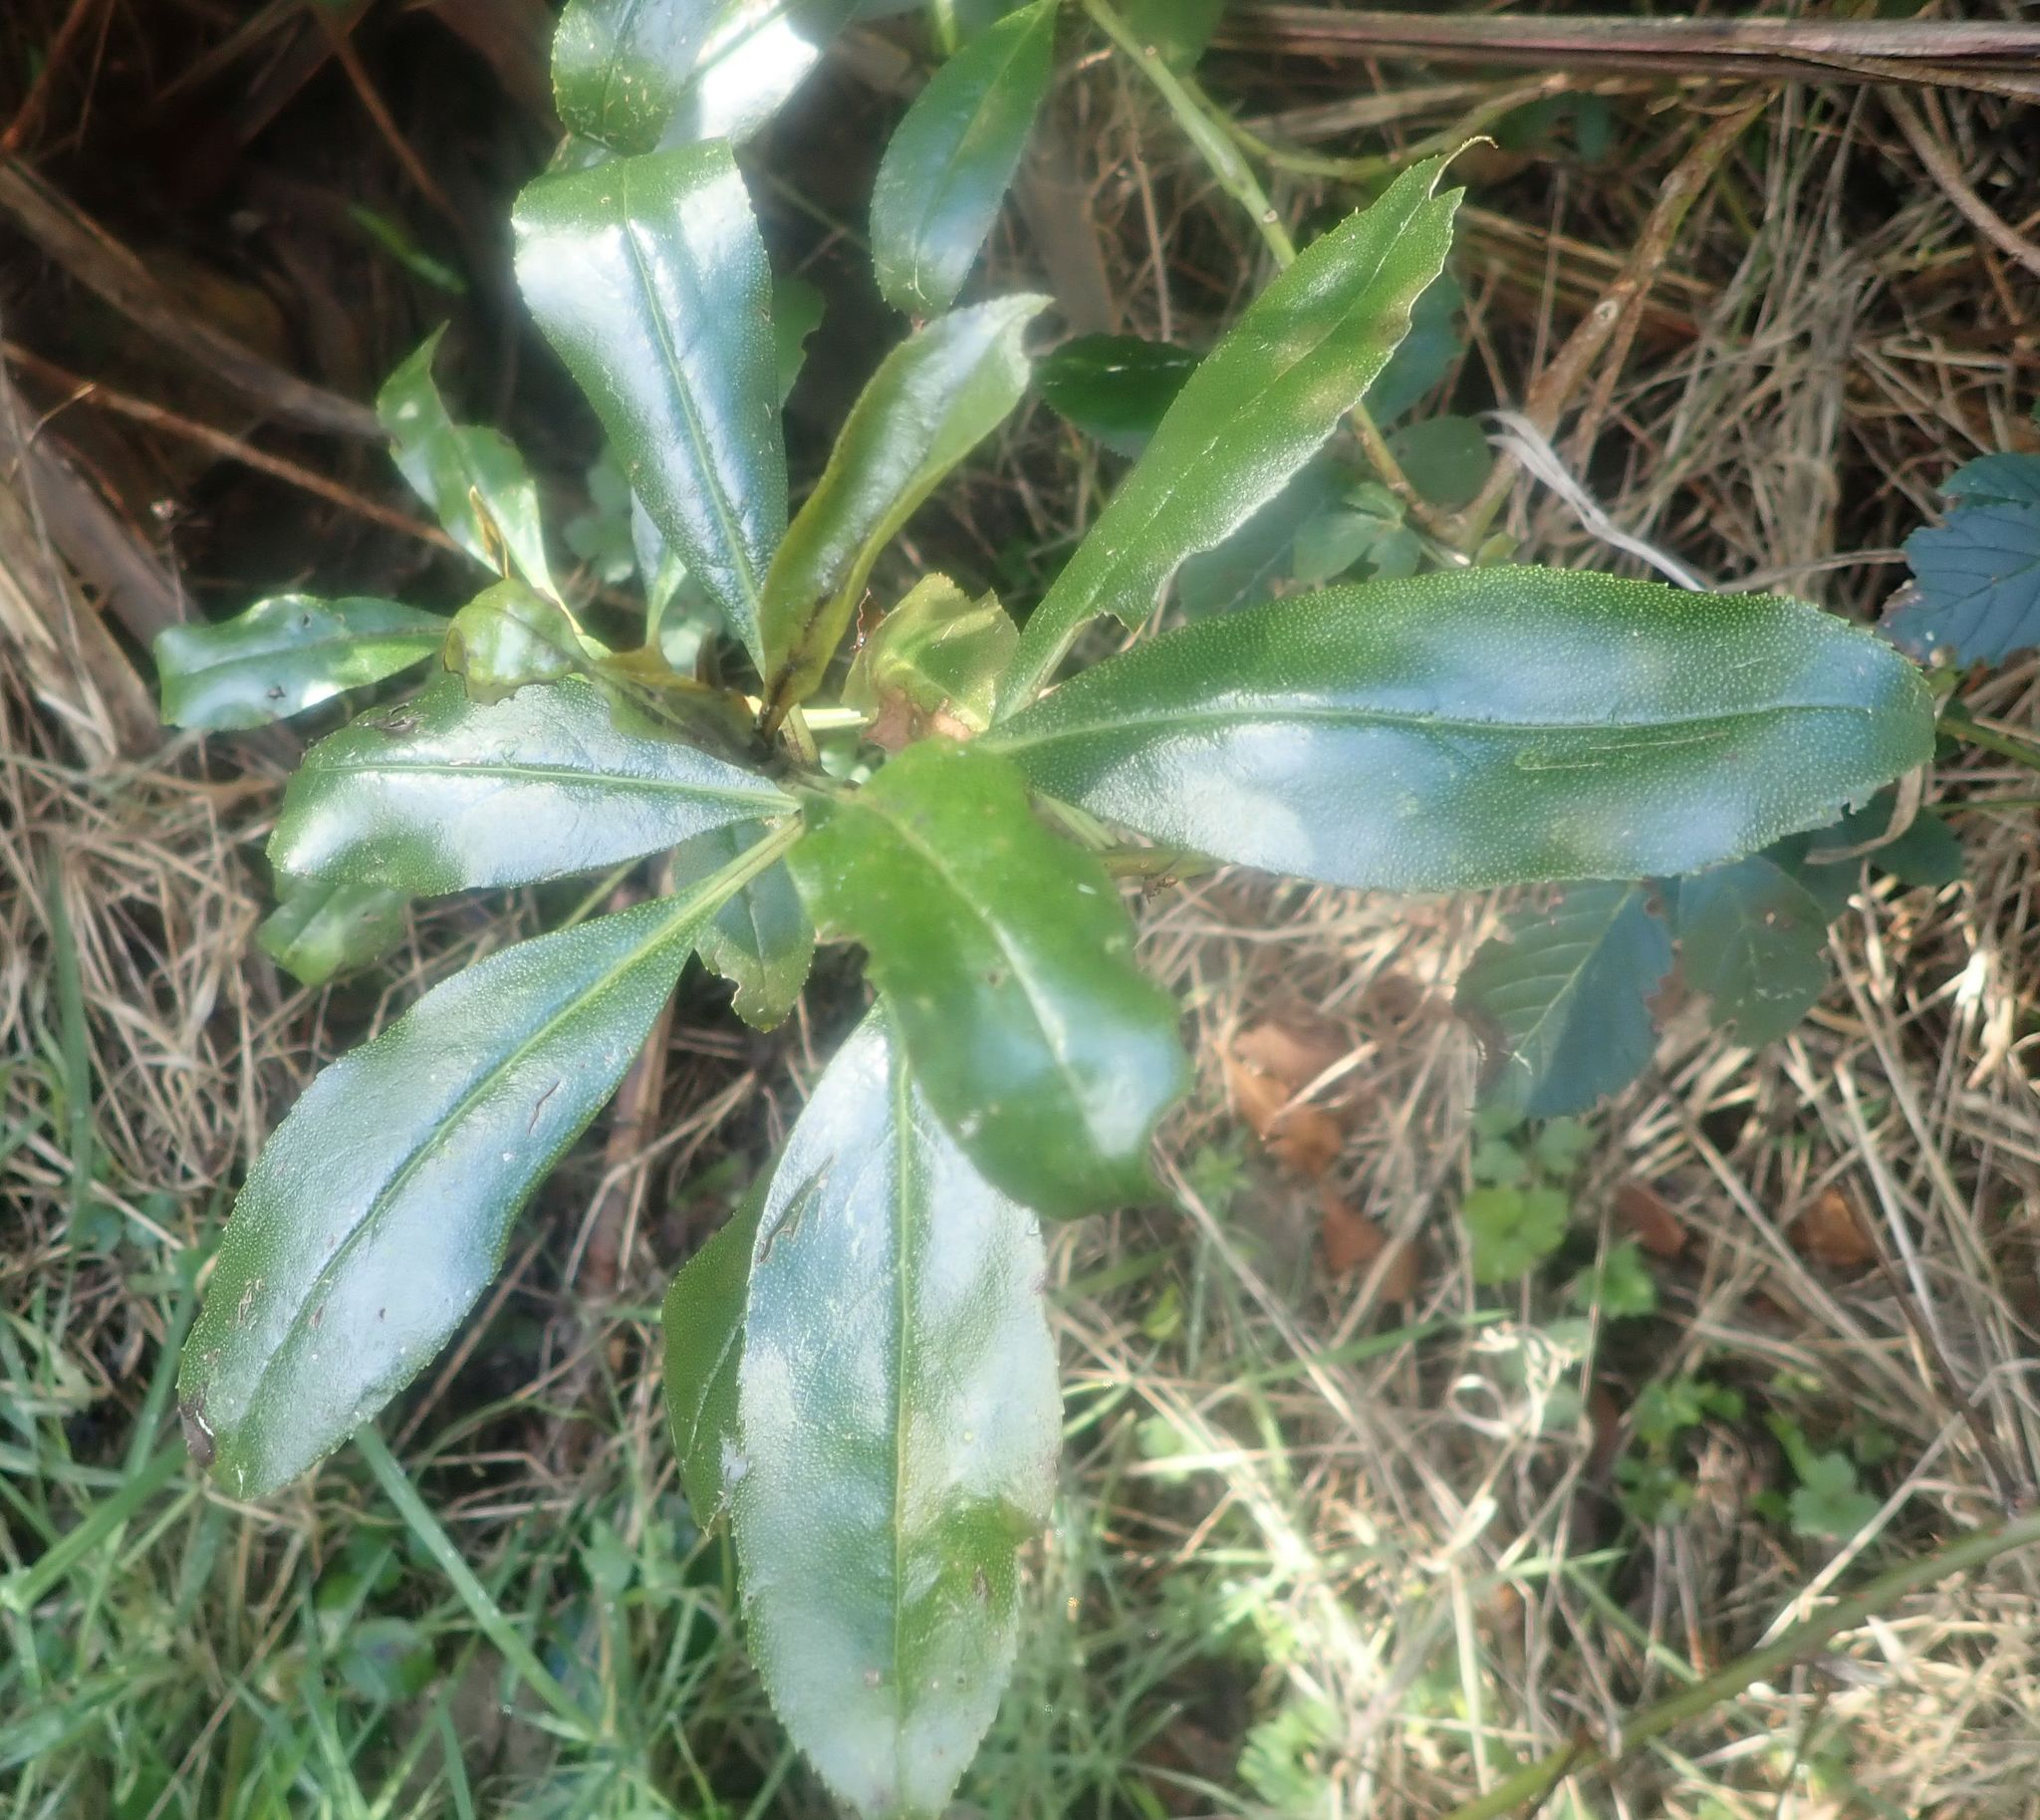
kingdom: Plantae
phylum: Tracheophyta
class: Magnoliopsida
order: Lamiales
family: Scrophulariaceae
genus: Myoporum
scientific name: Myoporum laetum
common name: Ngaio tree
